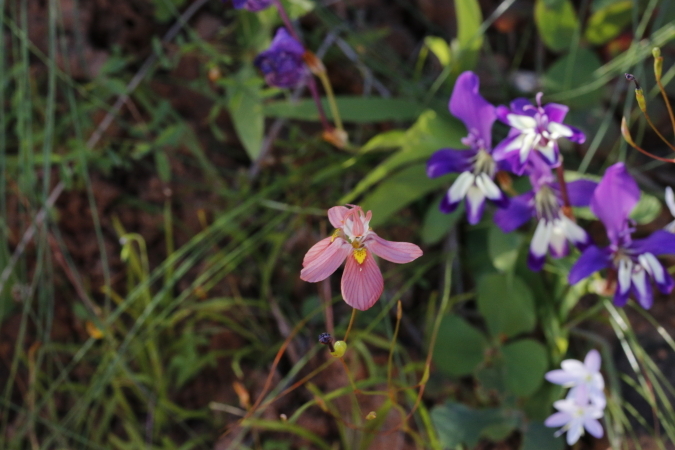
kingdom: Plantae
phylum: Tracheophyta
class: Liliopsida
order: Asparagales
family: Iridaceae
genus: Moraea
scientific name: Moraea gawleri
